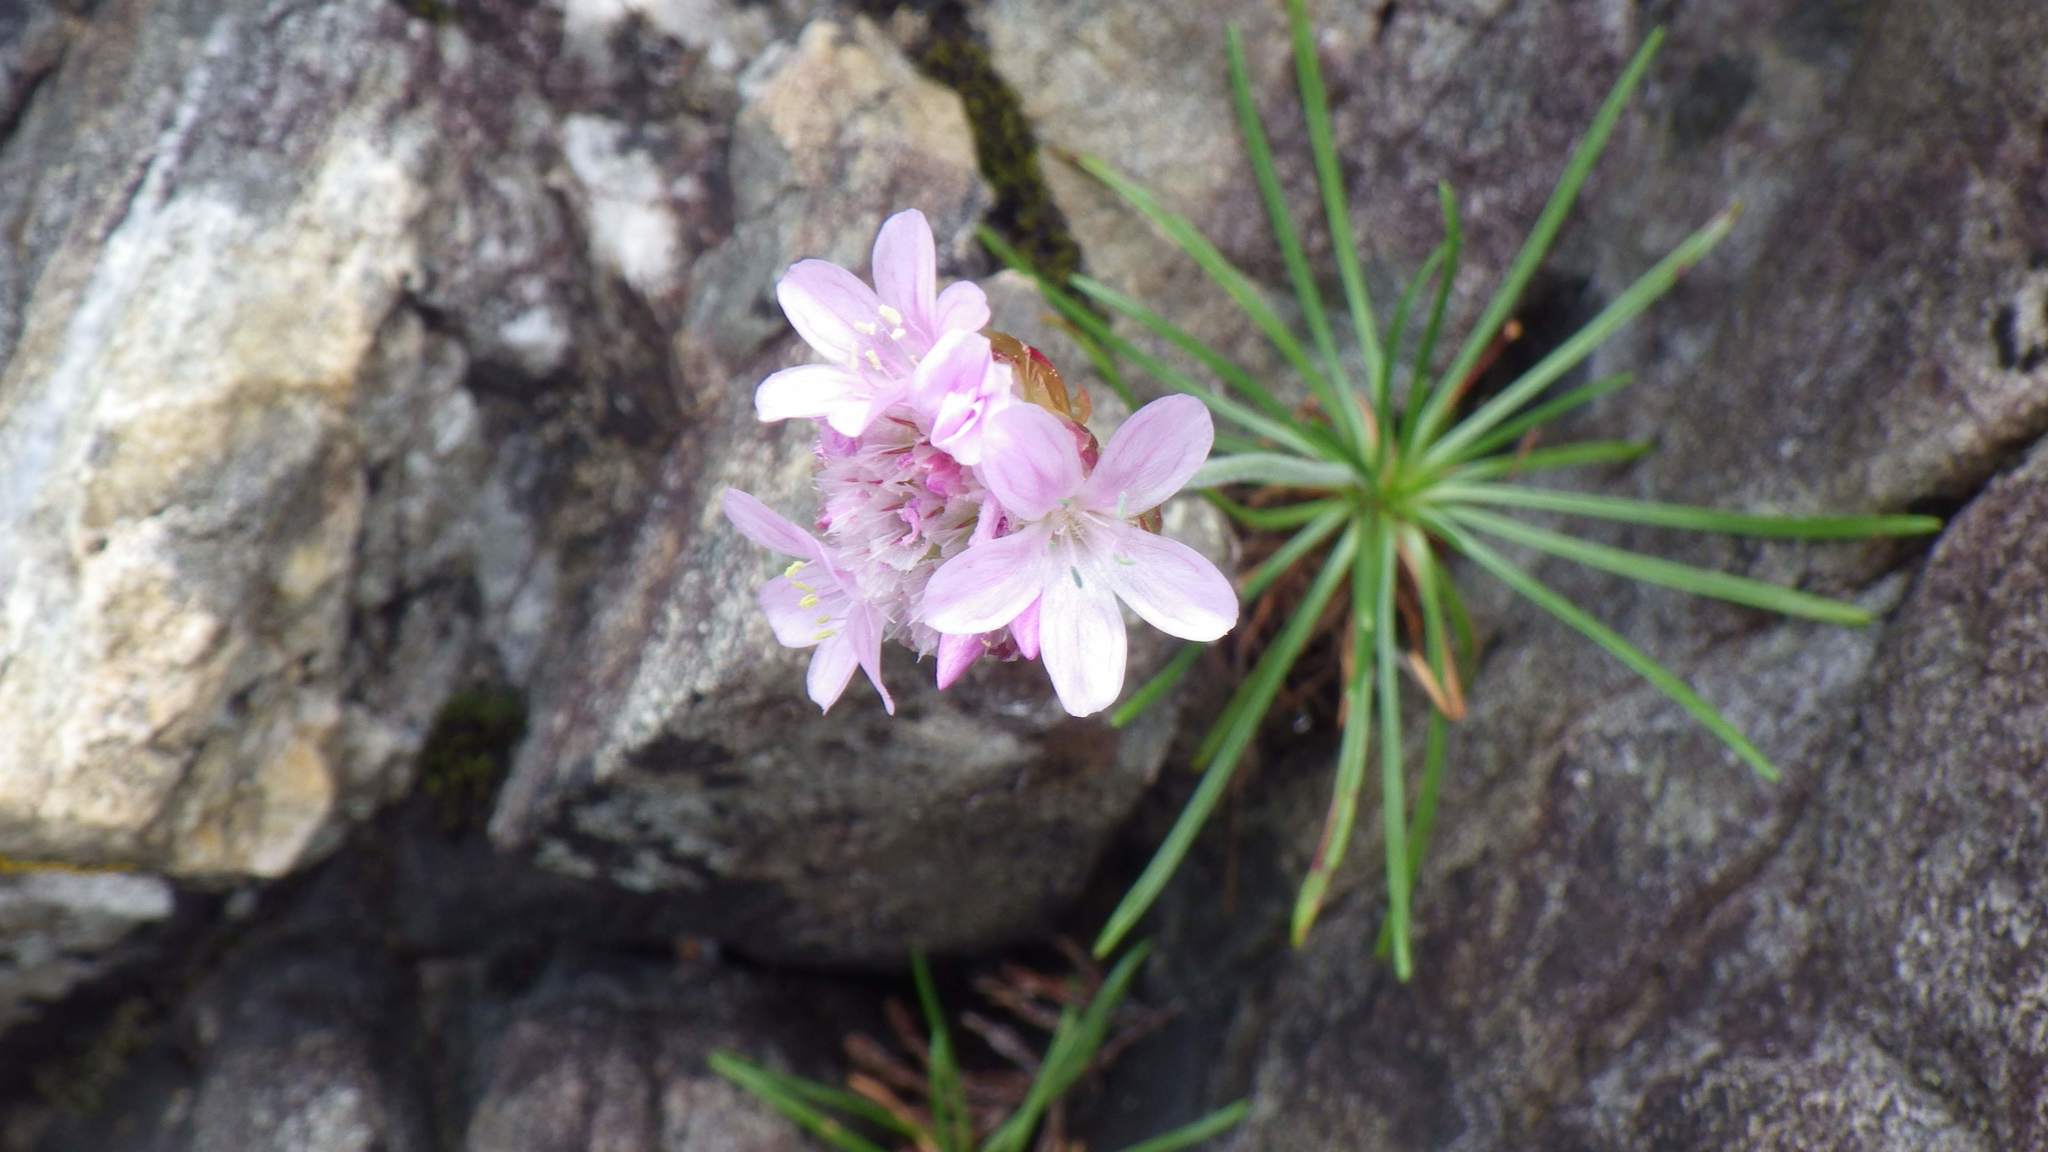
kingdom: Plantae
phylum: Tracheophyta
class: Magnoliopsida
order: Caryophyllales
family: Plumbaginaceae
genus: Armeria
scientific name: Armeria maritima
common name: Thrift
